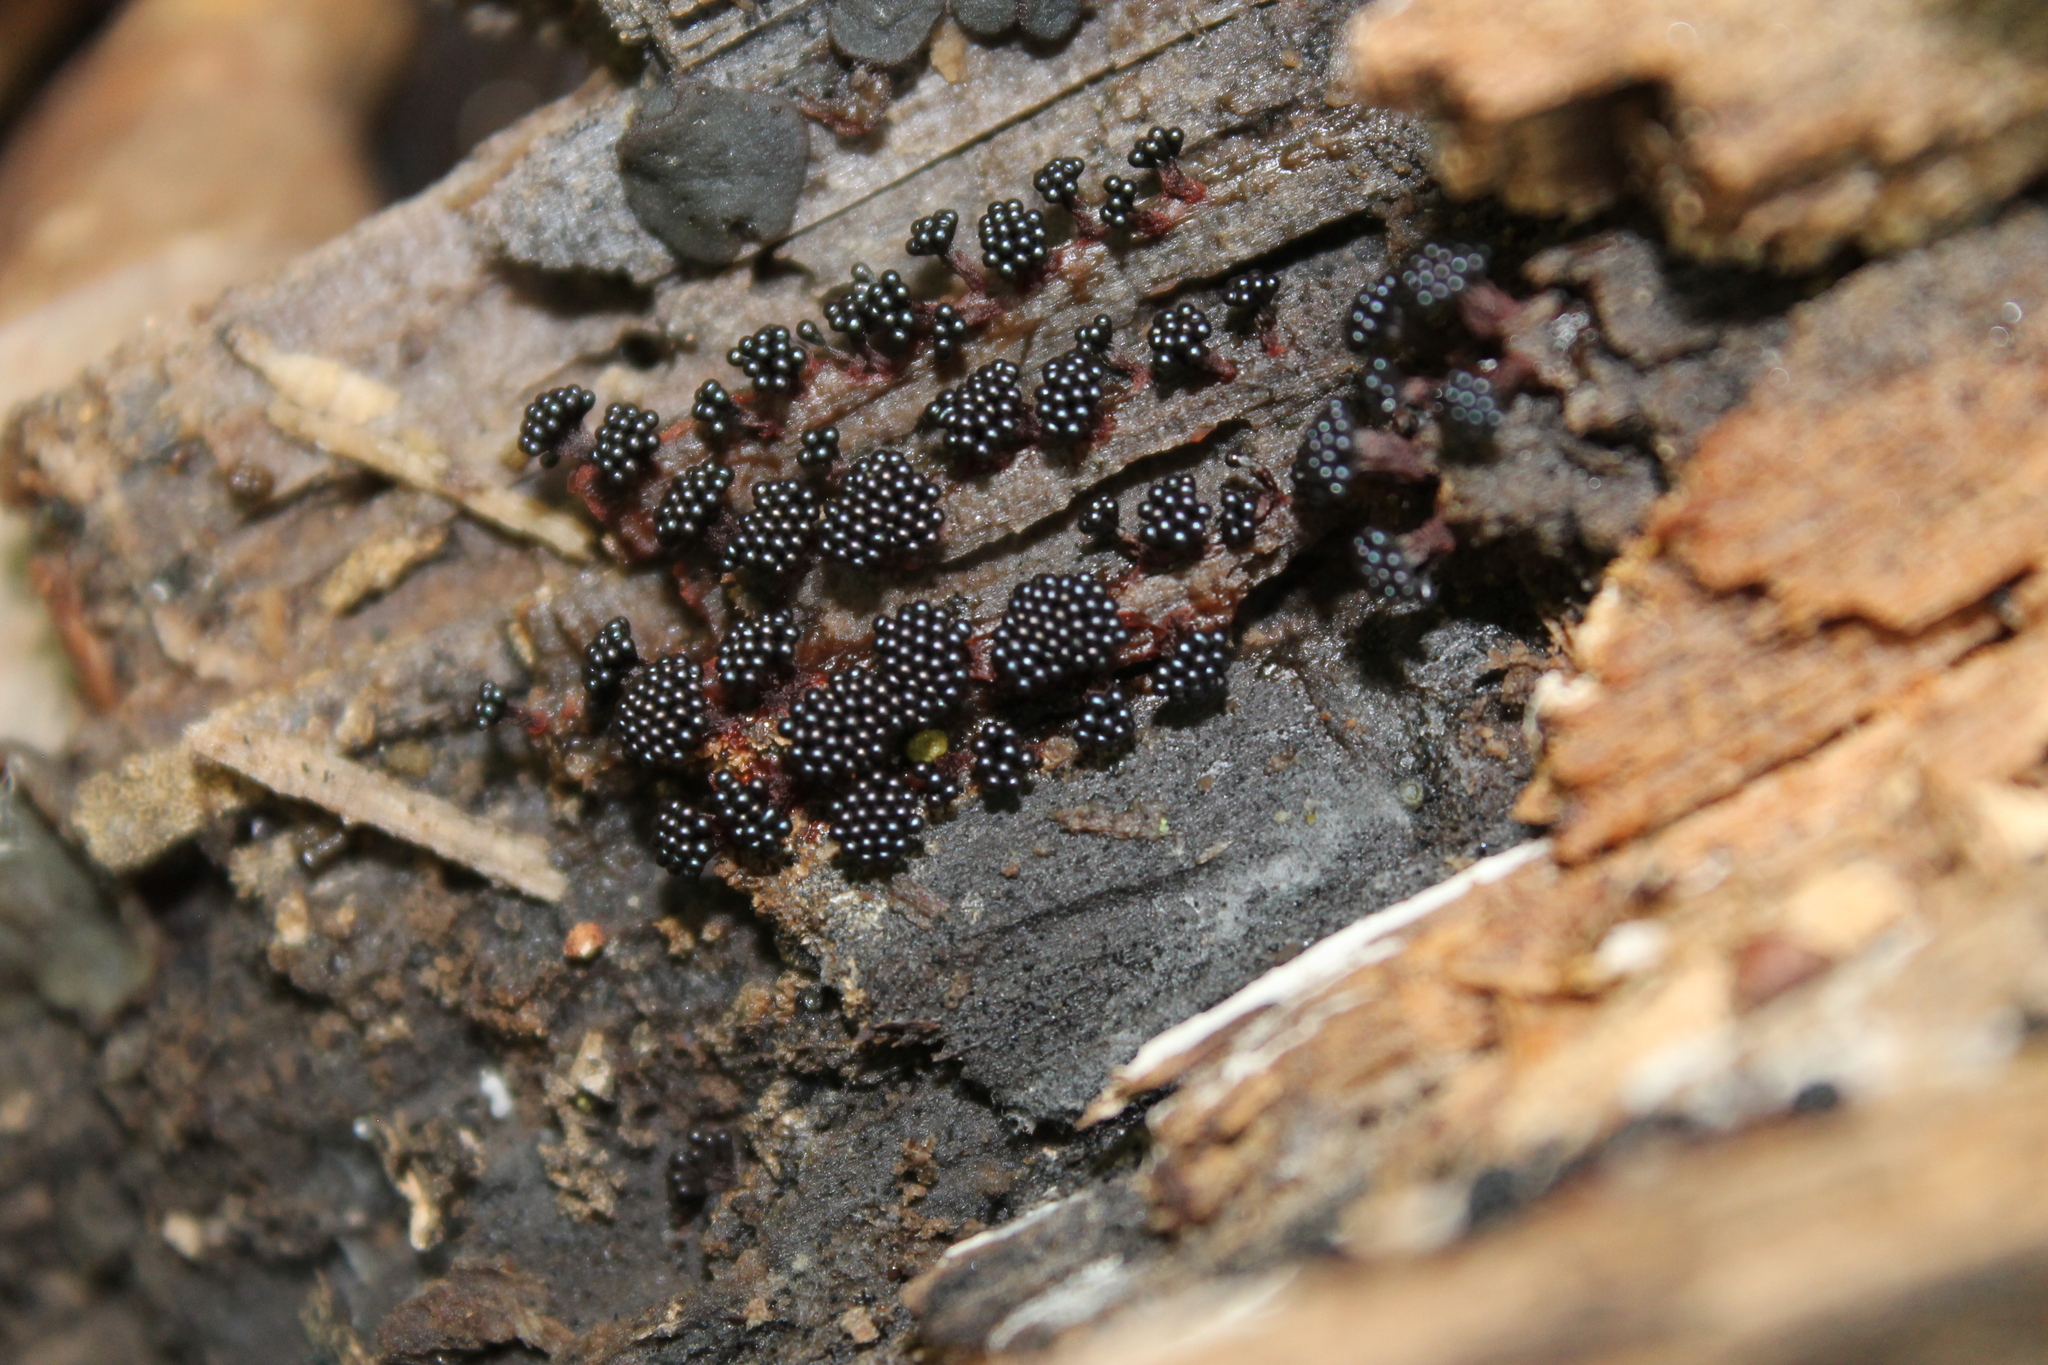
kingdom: Protozoa
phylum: Mycetozoa
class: Myxomycetes
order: Trichiales
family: Trichiaceae
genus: Metatrichia
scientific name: Metatrichia vesparia
